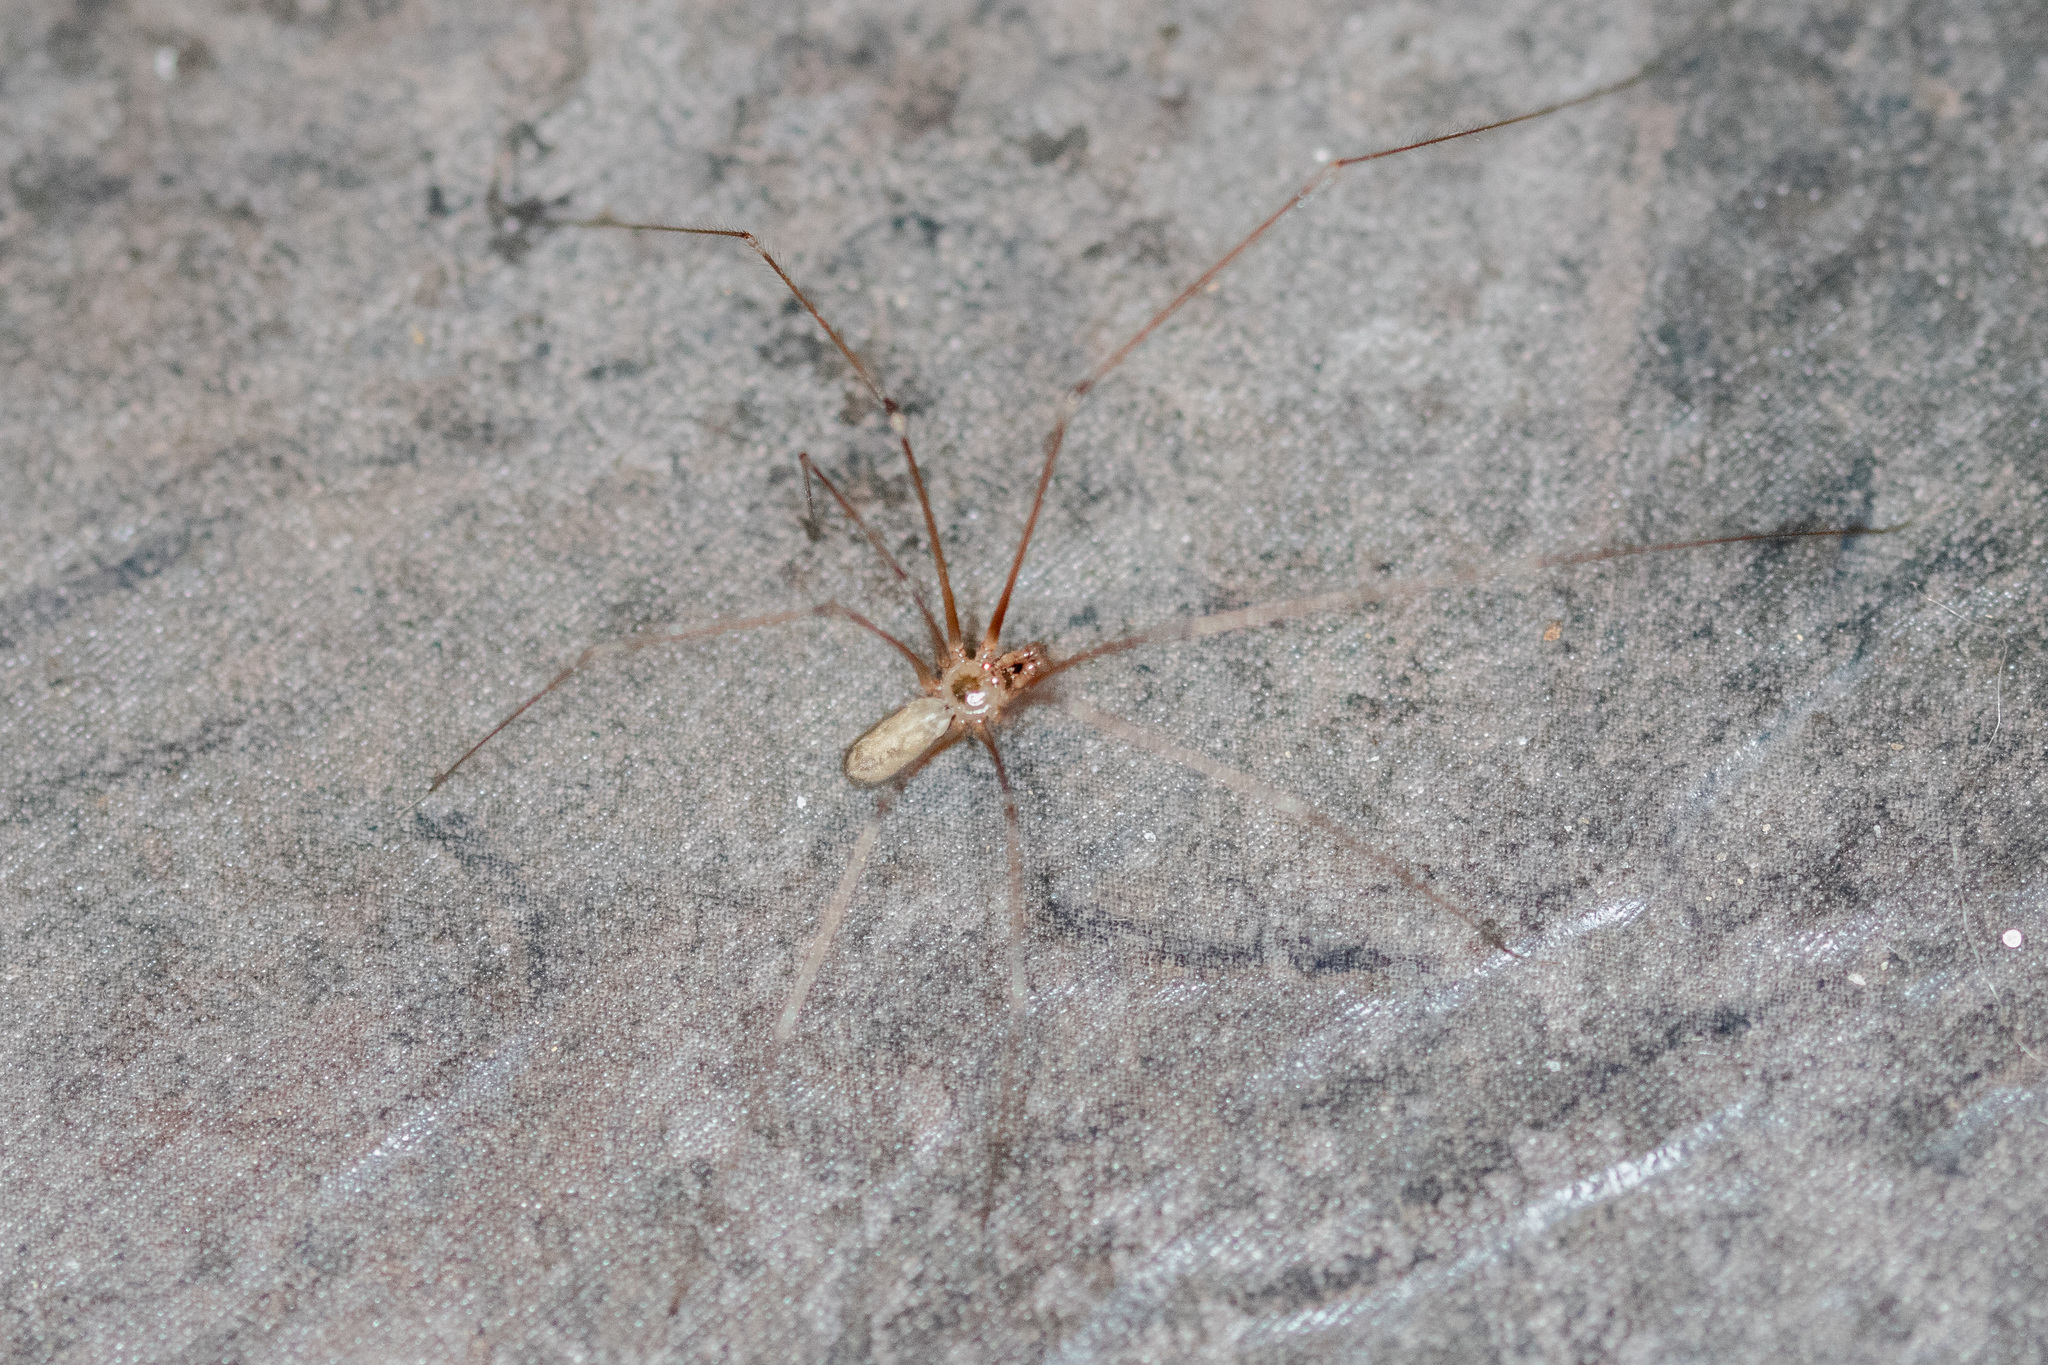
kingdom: Animalia
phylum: Arthropoda
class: Arachnida
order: Araneae
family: Pholcidae
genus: Pholcus
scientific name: Pholcus phalangioides
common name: Longbodied cellar spider
